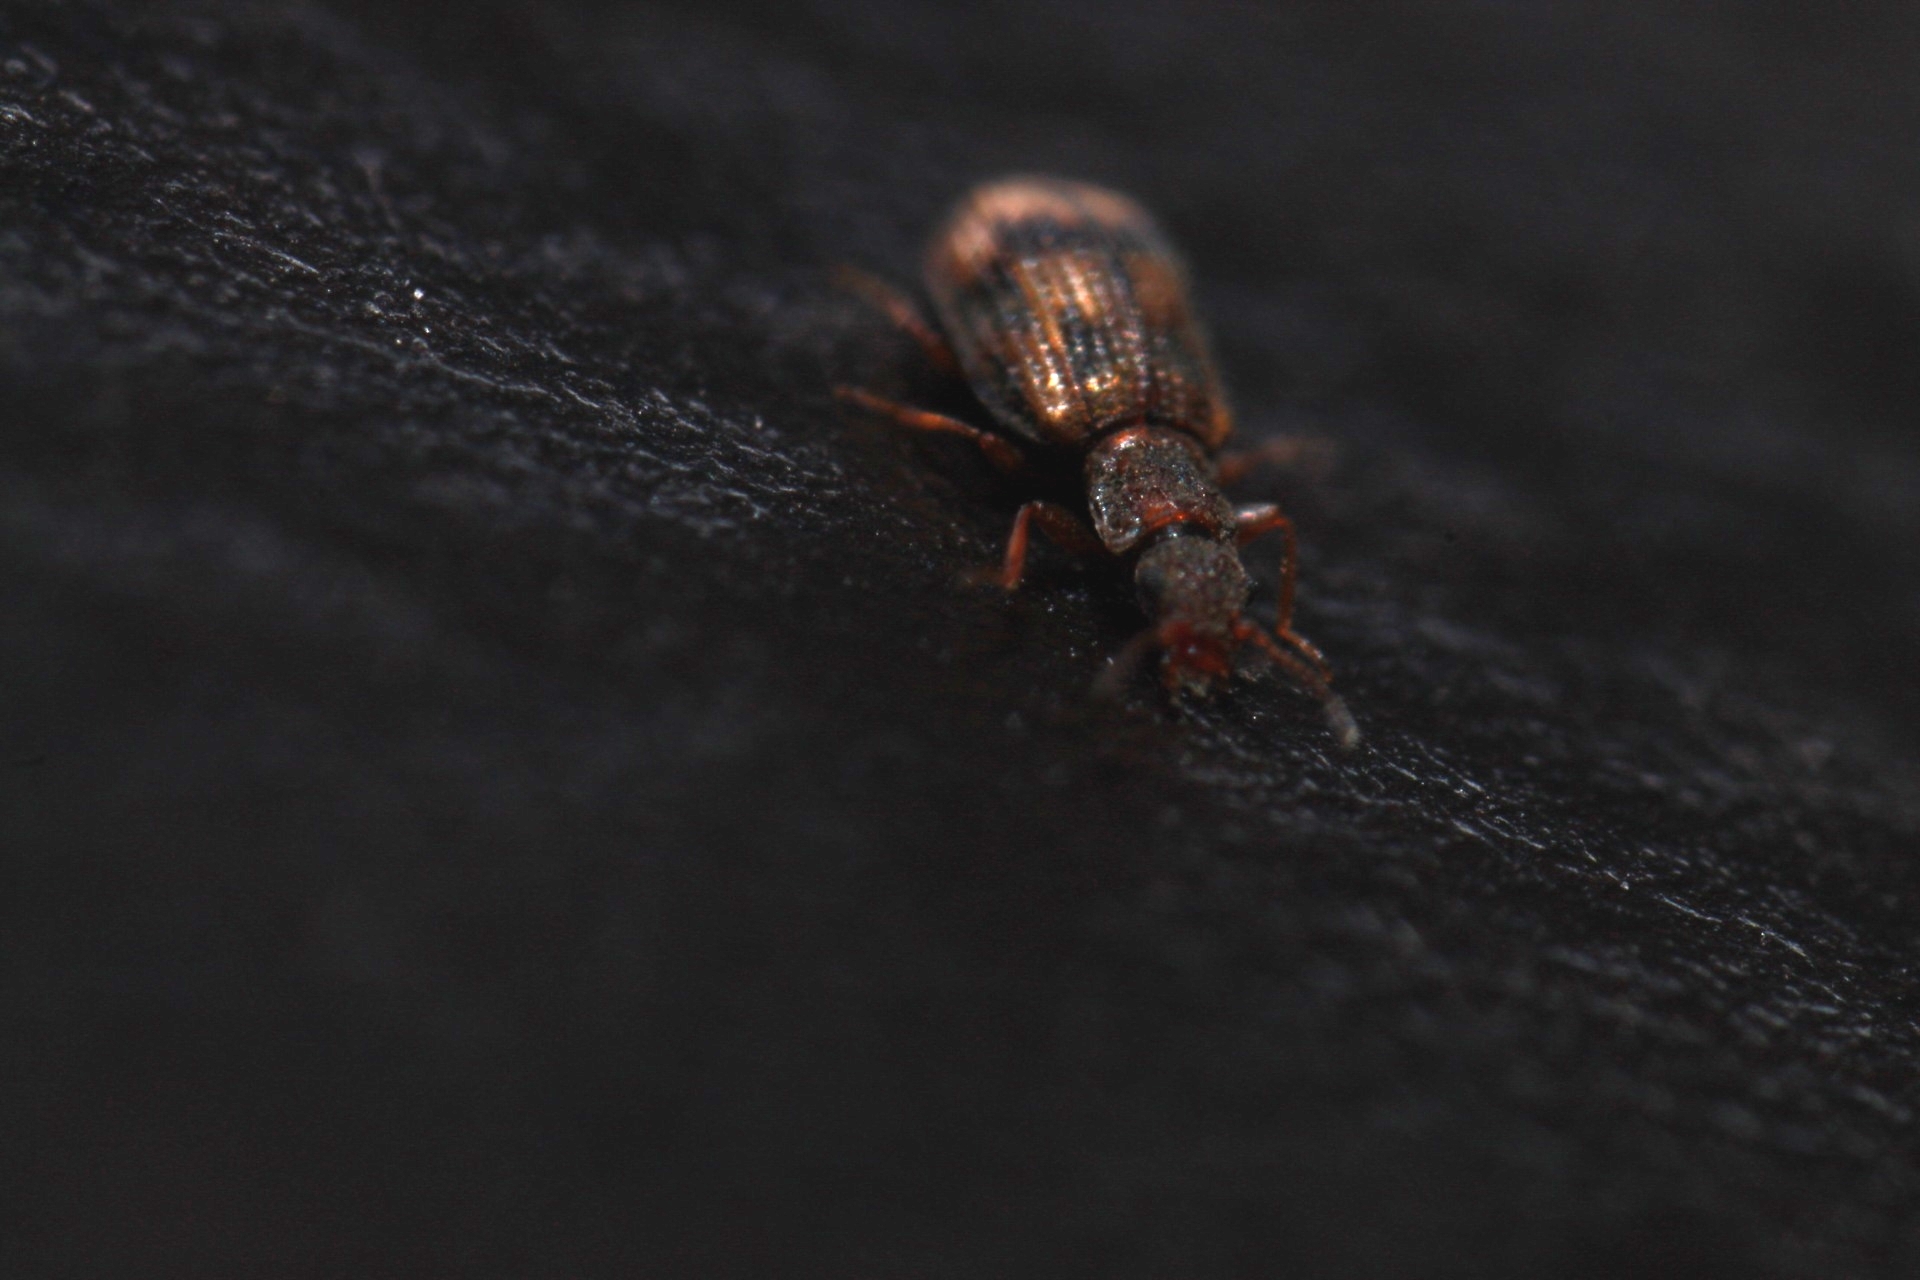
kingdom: Animalia
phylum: Arthropoda
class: Insecta
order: Coleoptera
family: Latridiidae
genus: Cartodere
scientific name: Cartodere bifasciata
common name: Plaster beetle
